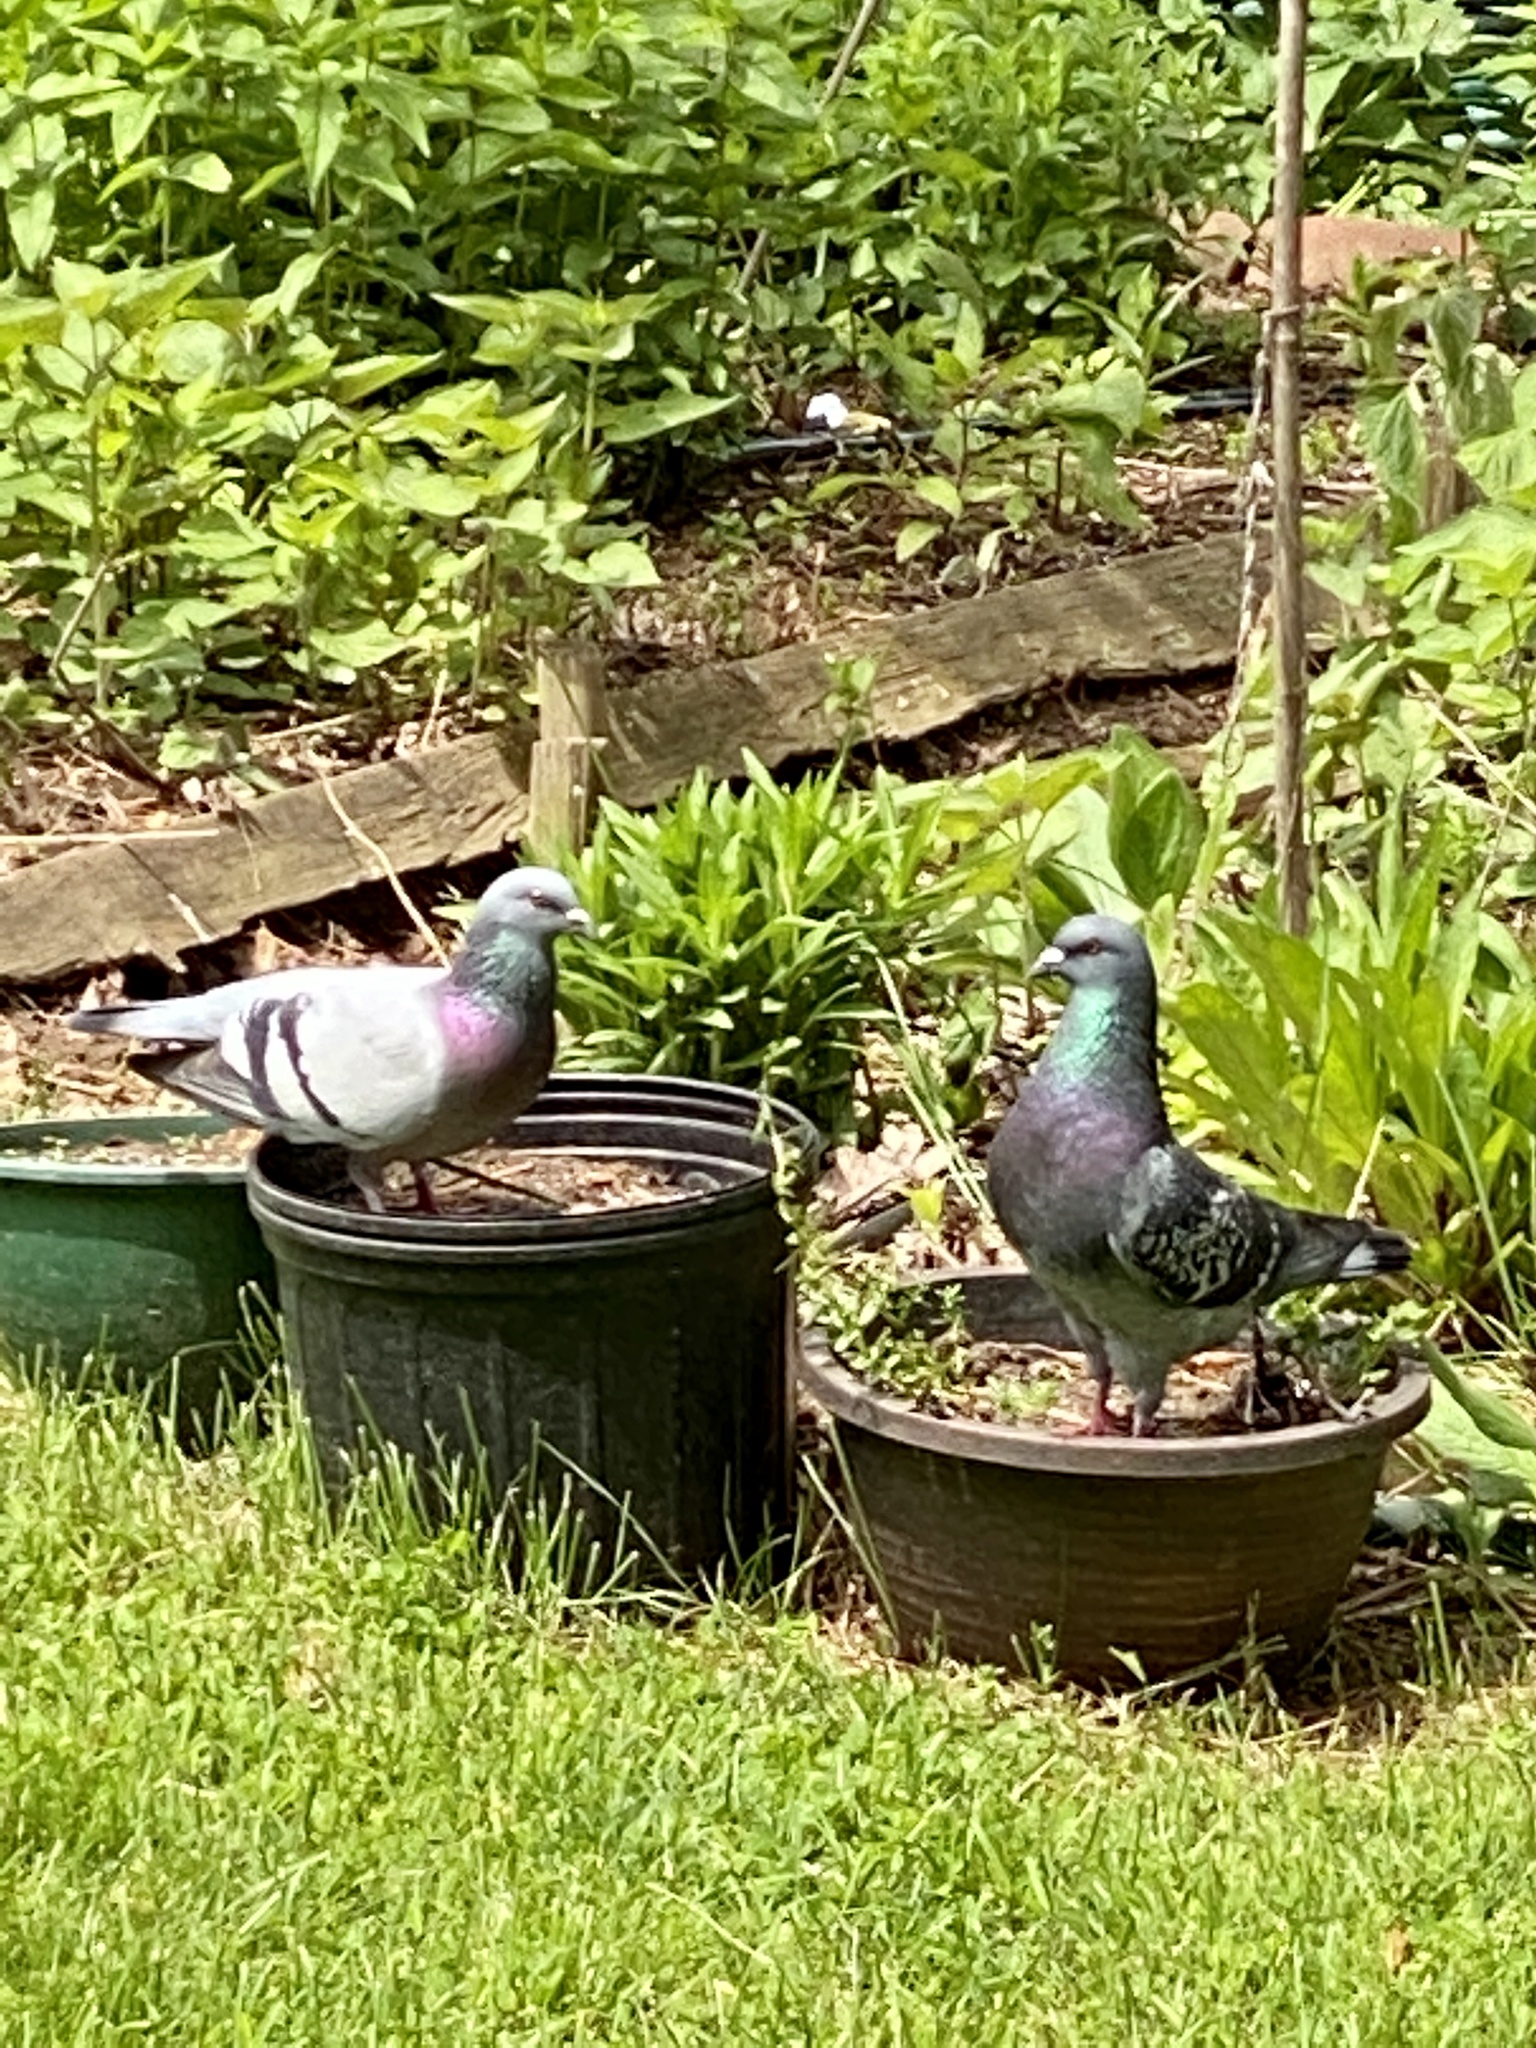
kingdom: Animalia
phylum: Chordata
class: Aves
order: Columbiformes
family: Columbidae
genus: Columba
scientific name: Columba livia
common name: Rock pigeon
